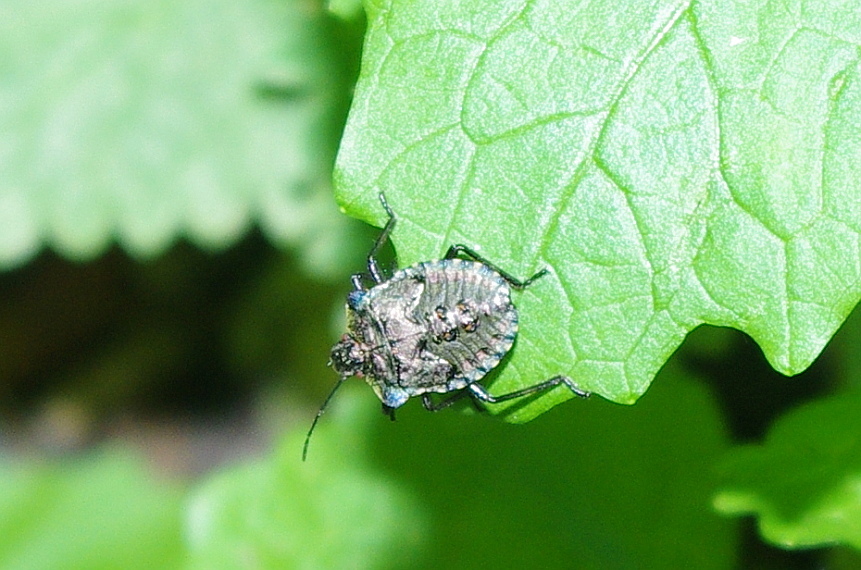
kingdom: Animalia
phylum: Arthropoda
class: Insecta
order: Hemiptera
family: Pentatomidae
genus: Pentatoma
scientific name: Pentatoma rufipes
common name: Forest bug
